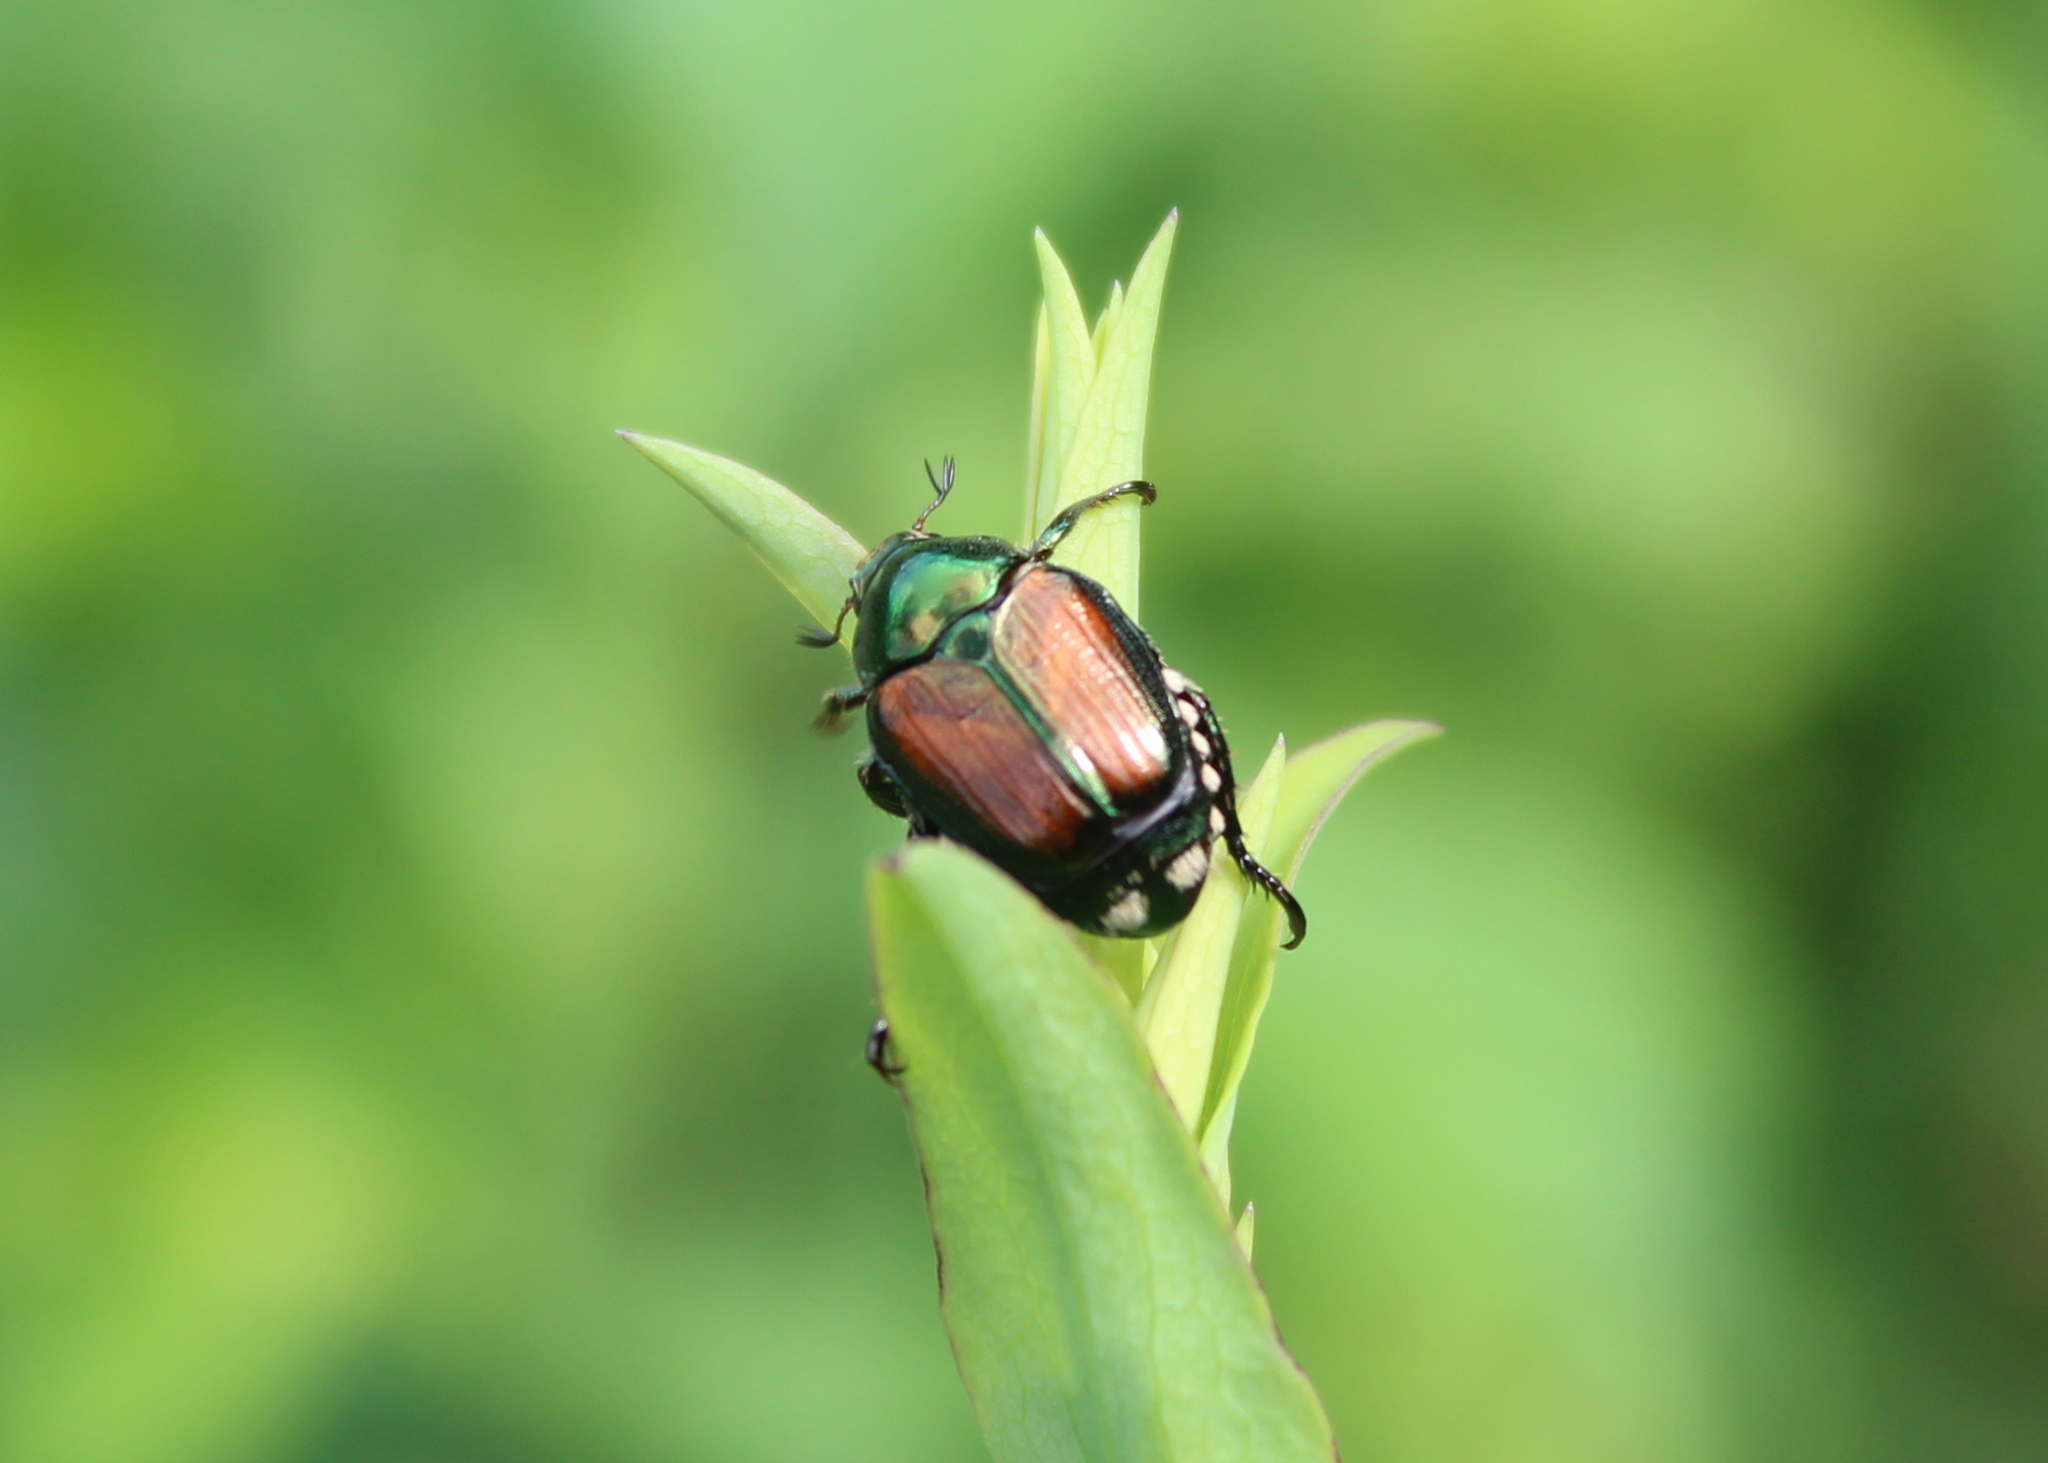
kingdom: Animalia
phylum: Arthropoda
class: Insecta
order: Coleoptera
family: Scarabaeidae
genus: Popillia
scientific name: Popillia japonica
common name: Japanese beetle
